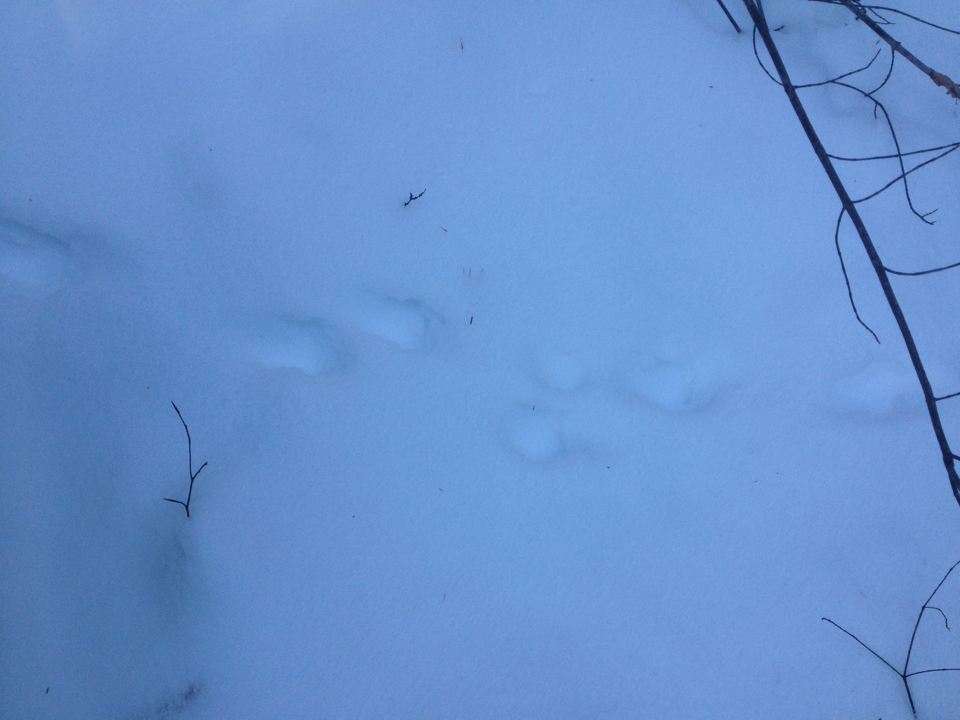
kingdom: Animalia
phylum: Chordata
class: Mammalia
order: Carnivora
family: Mustelidae
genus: Pekania
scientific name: Pekania pennanti
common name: Fisher
